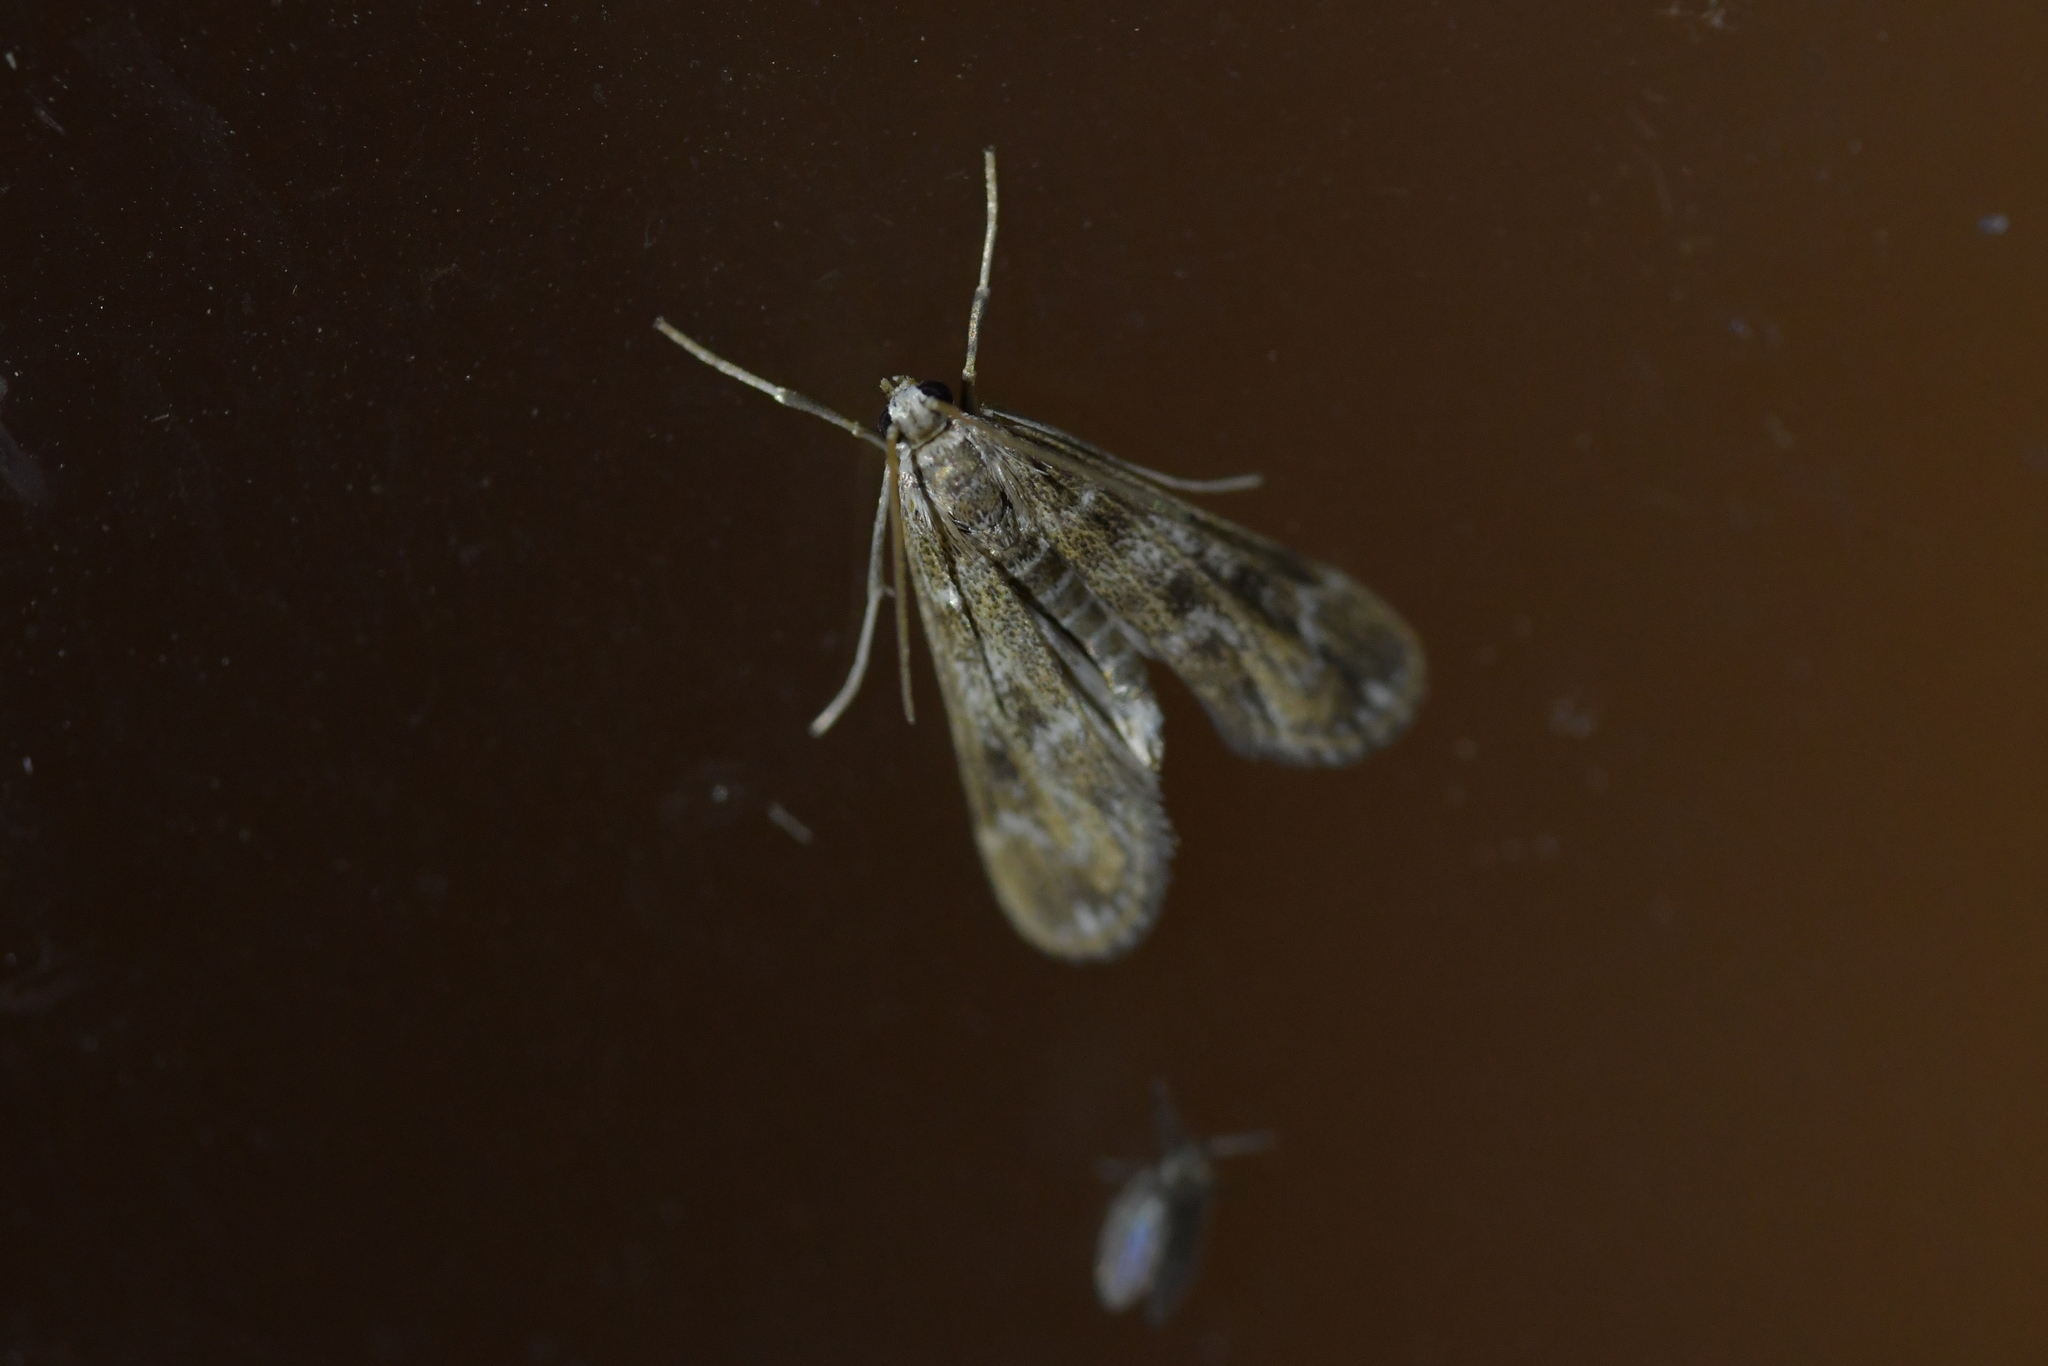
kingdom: Animalia
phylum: Arthropoda
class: Insecta
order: Lepidoptera
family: Crambidae
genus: Hygraula
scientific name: Hygraula nitens
